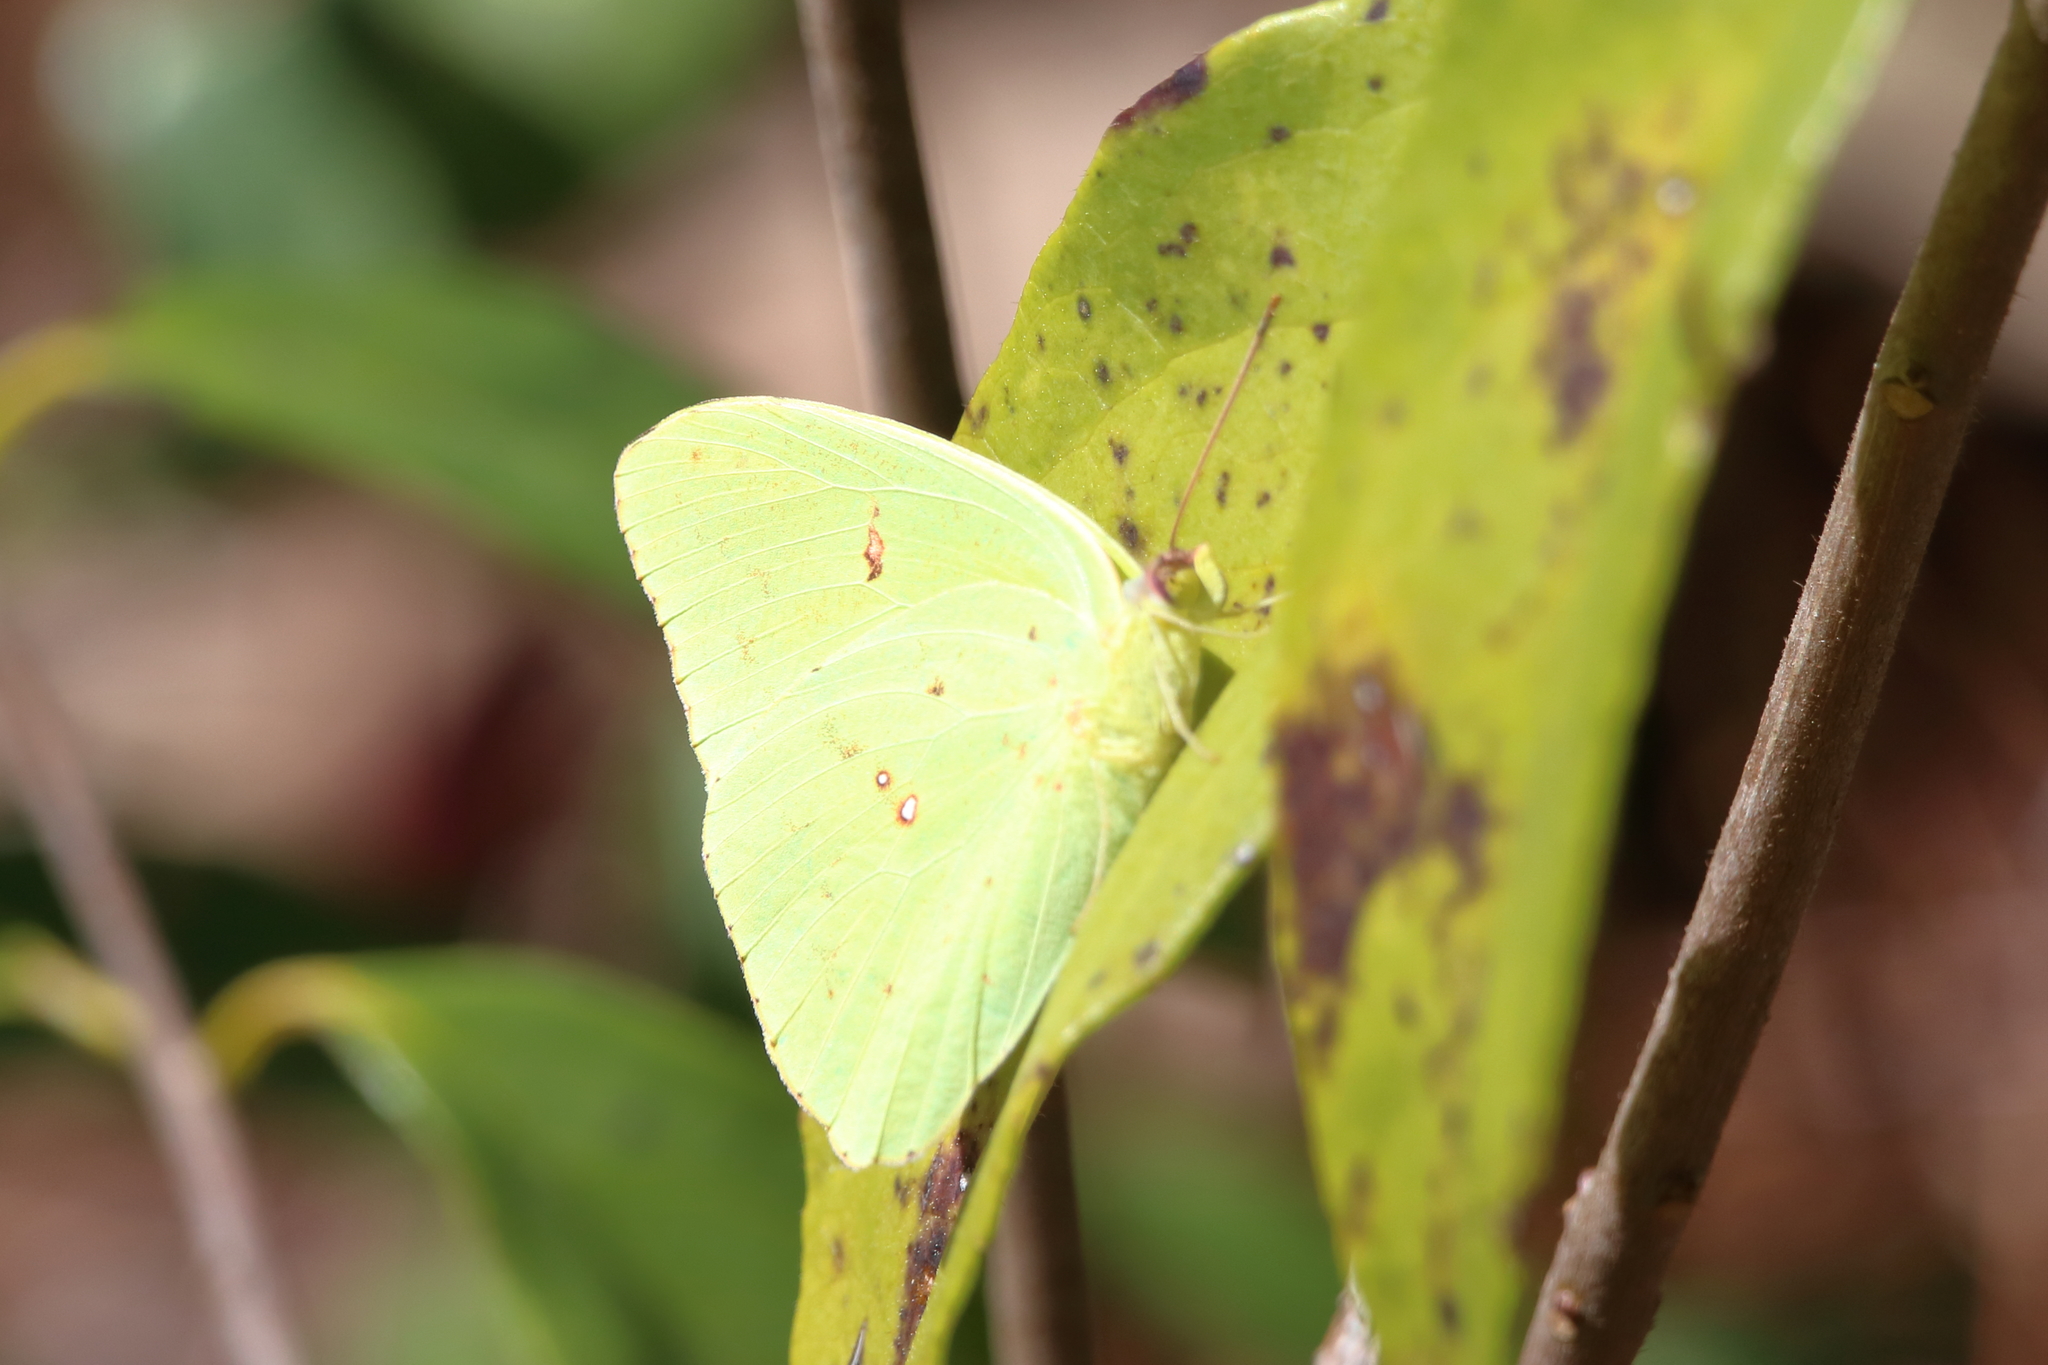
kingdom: Animalia
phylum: Arthropoda
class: Insecta
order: Lepidoptera
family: Pieridae
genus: Phoebis
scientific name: Phoebis sennae
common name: Cloudless sulphur
